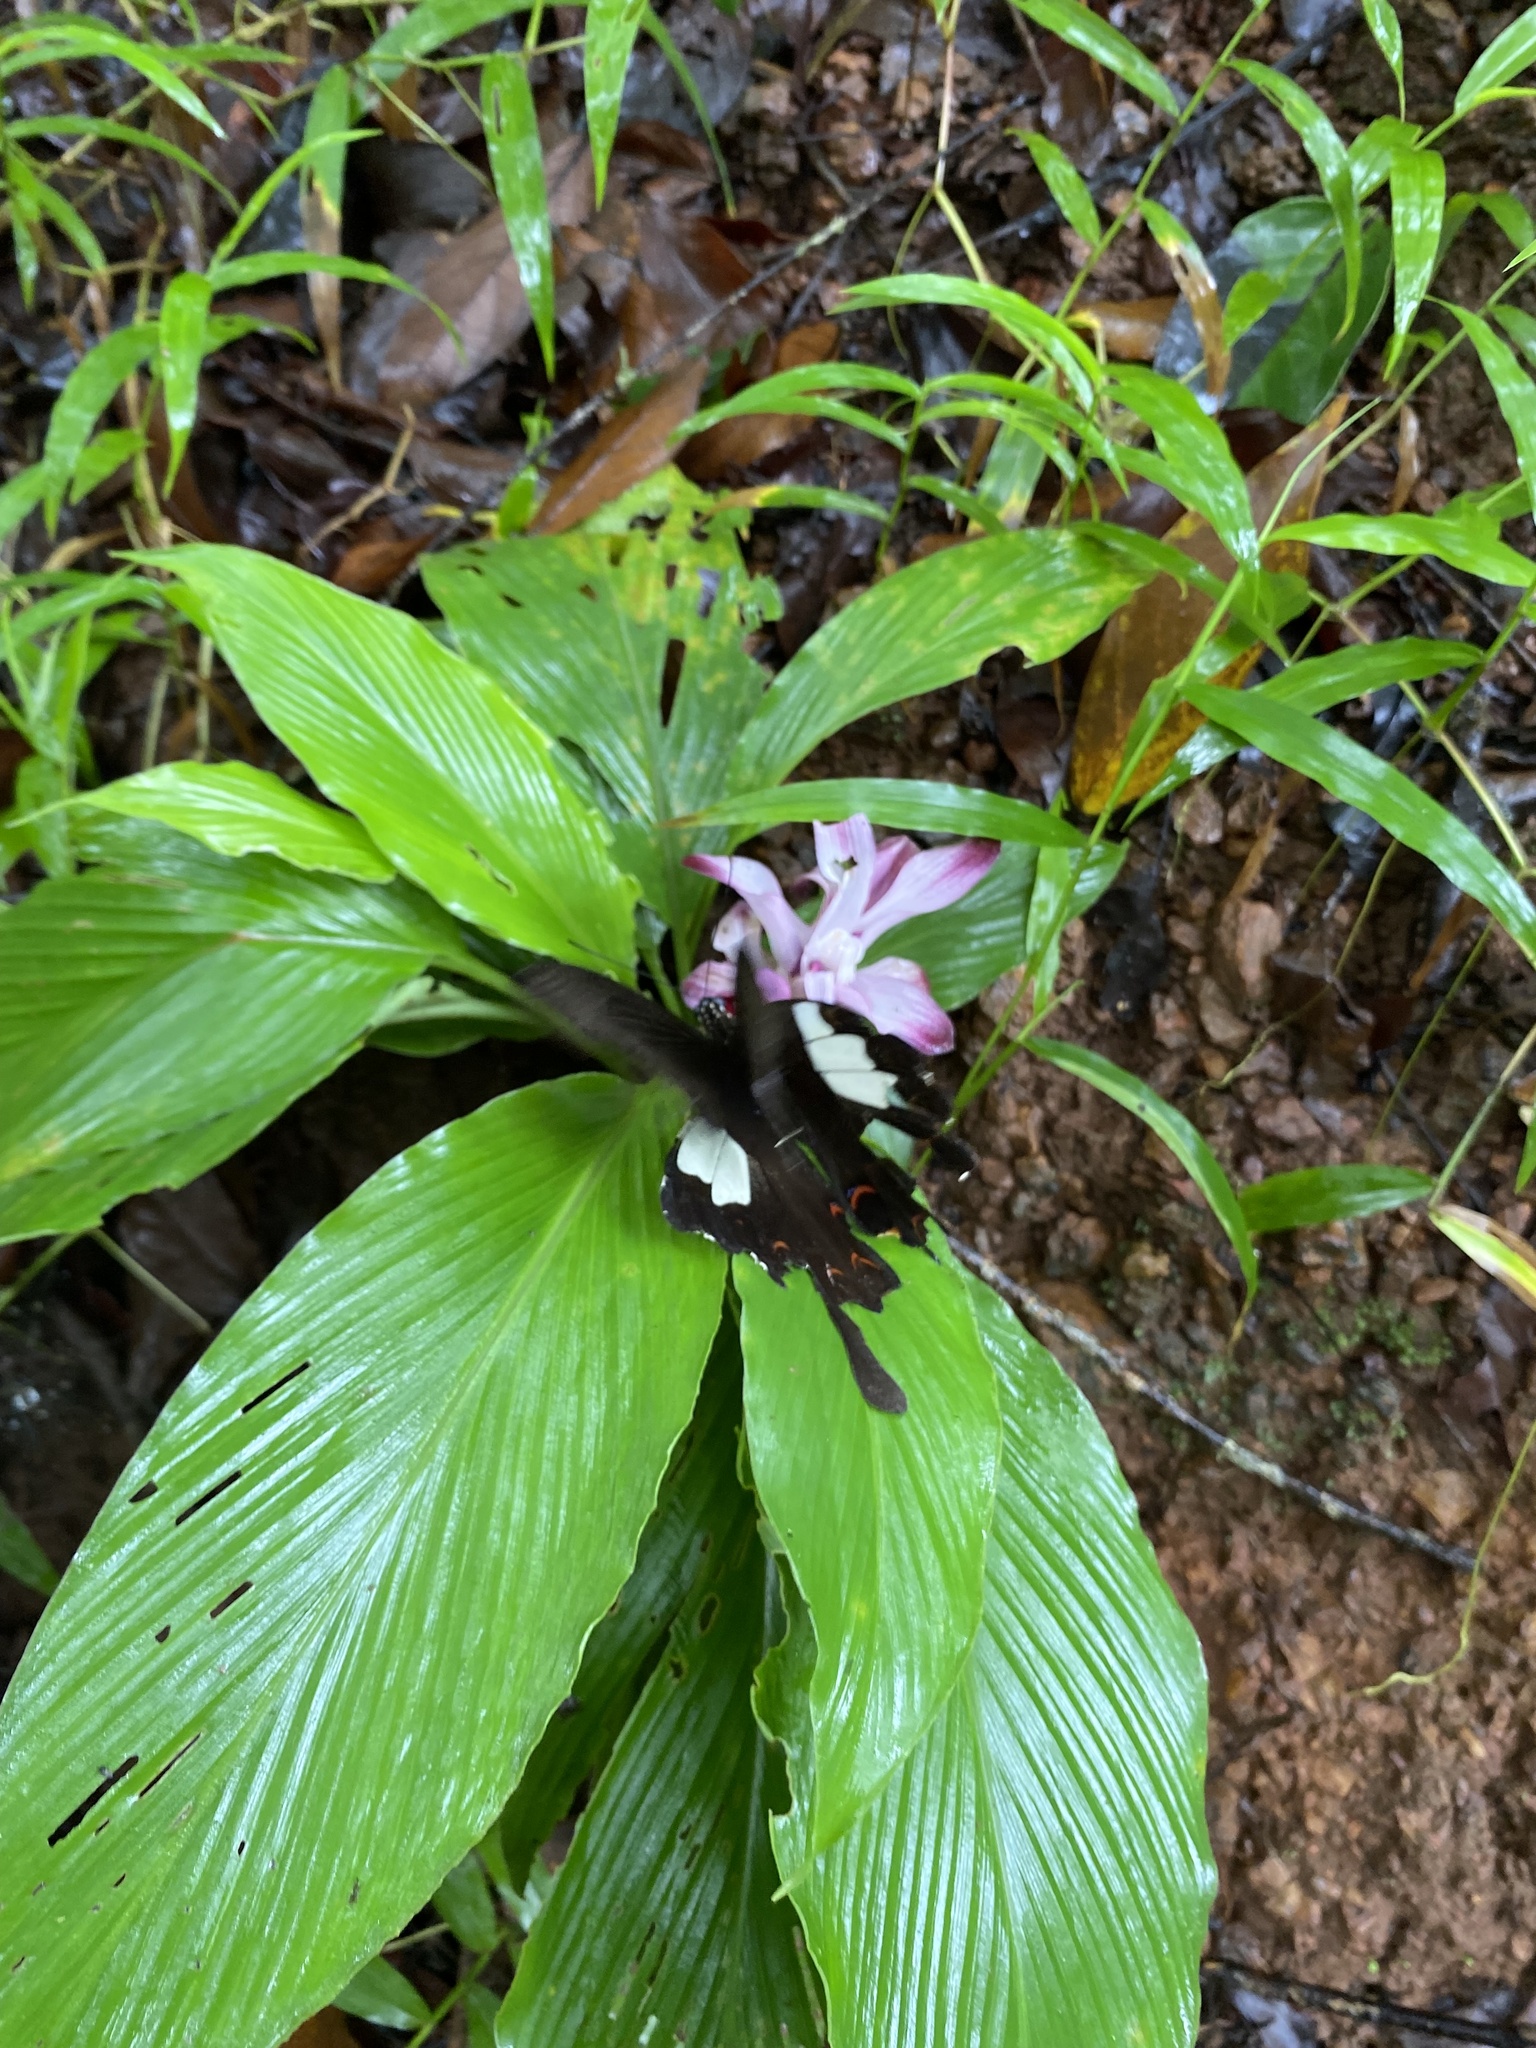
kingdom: Animalia
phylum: Arthropoda
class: Insecta
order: Lepidoptera
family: Papilionidae
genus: Papilio
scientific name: Papilio helenus
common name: Red helen
